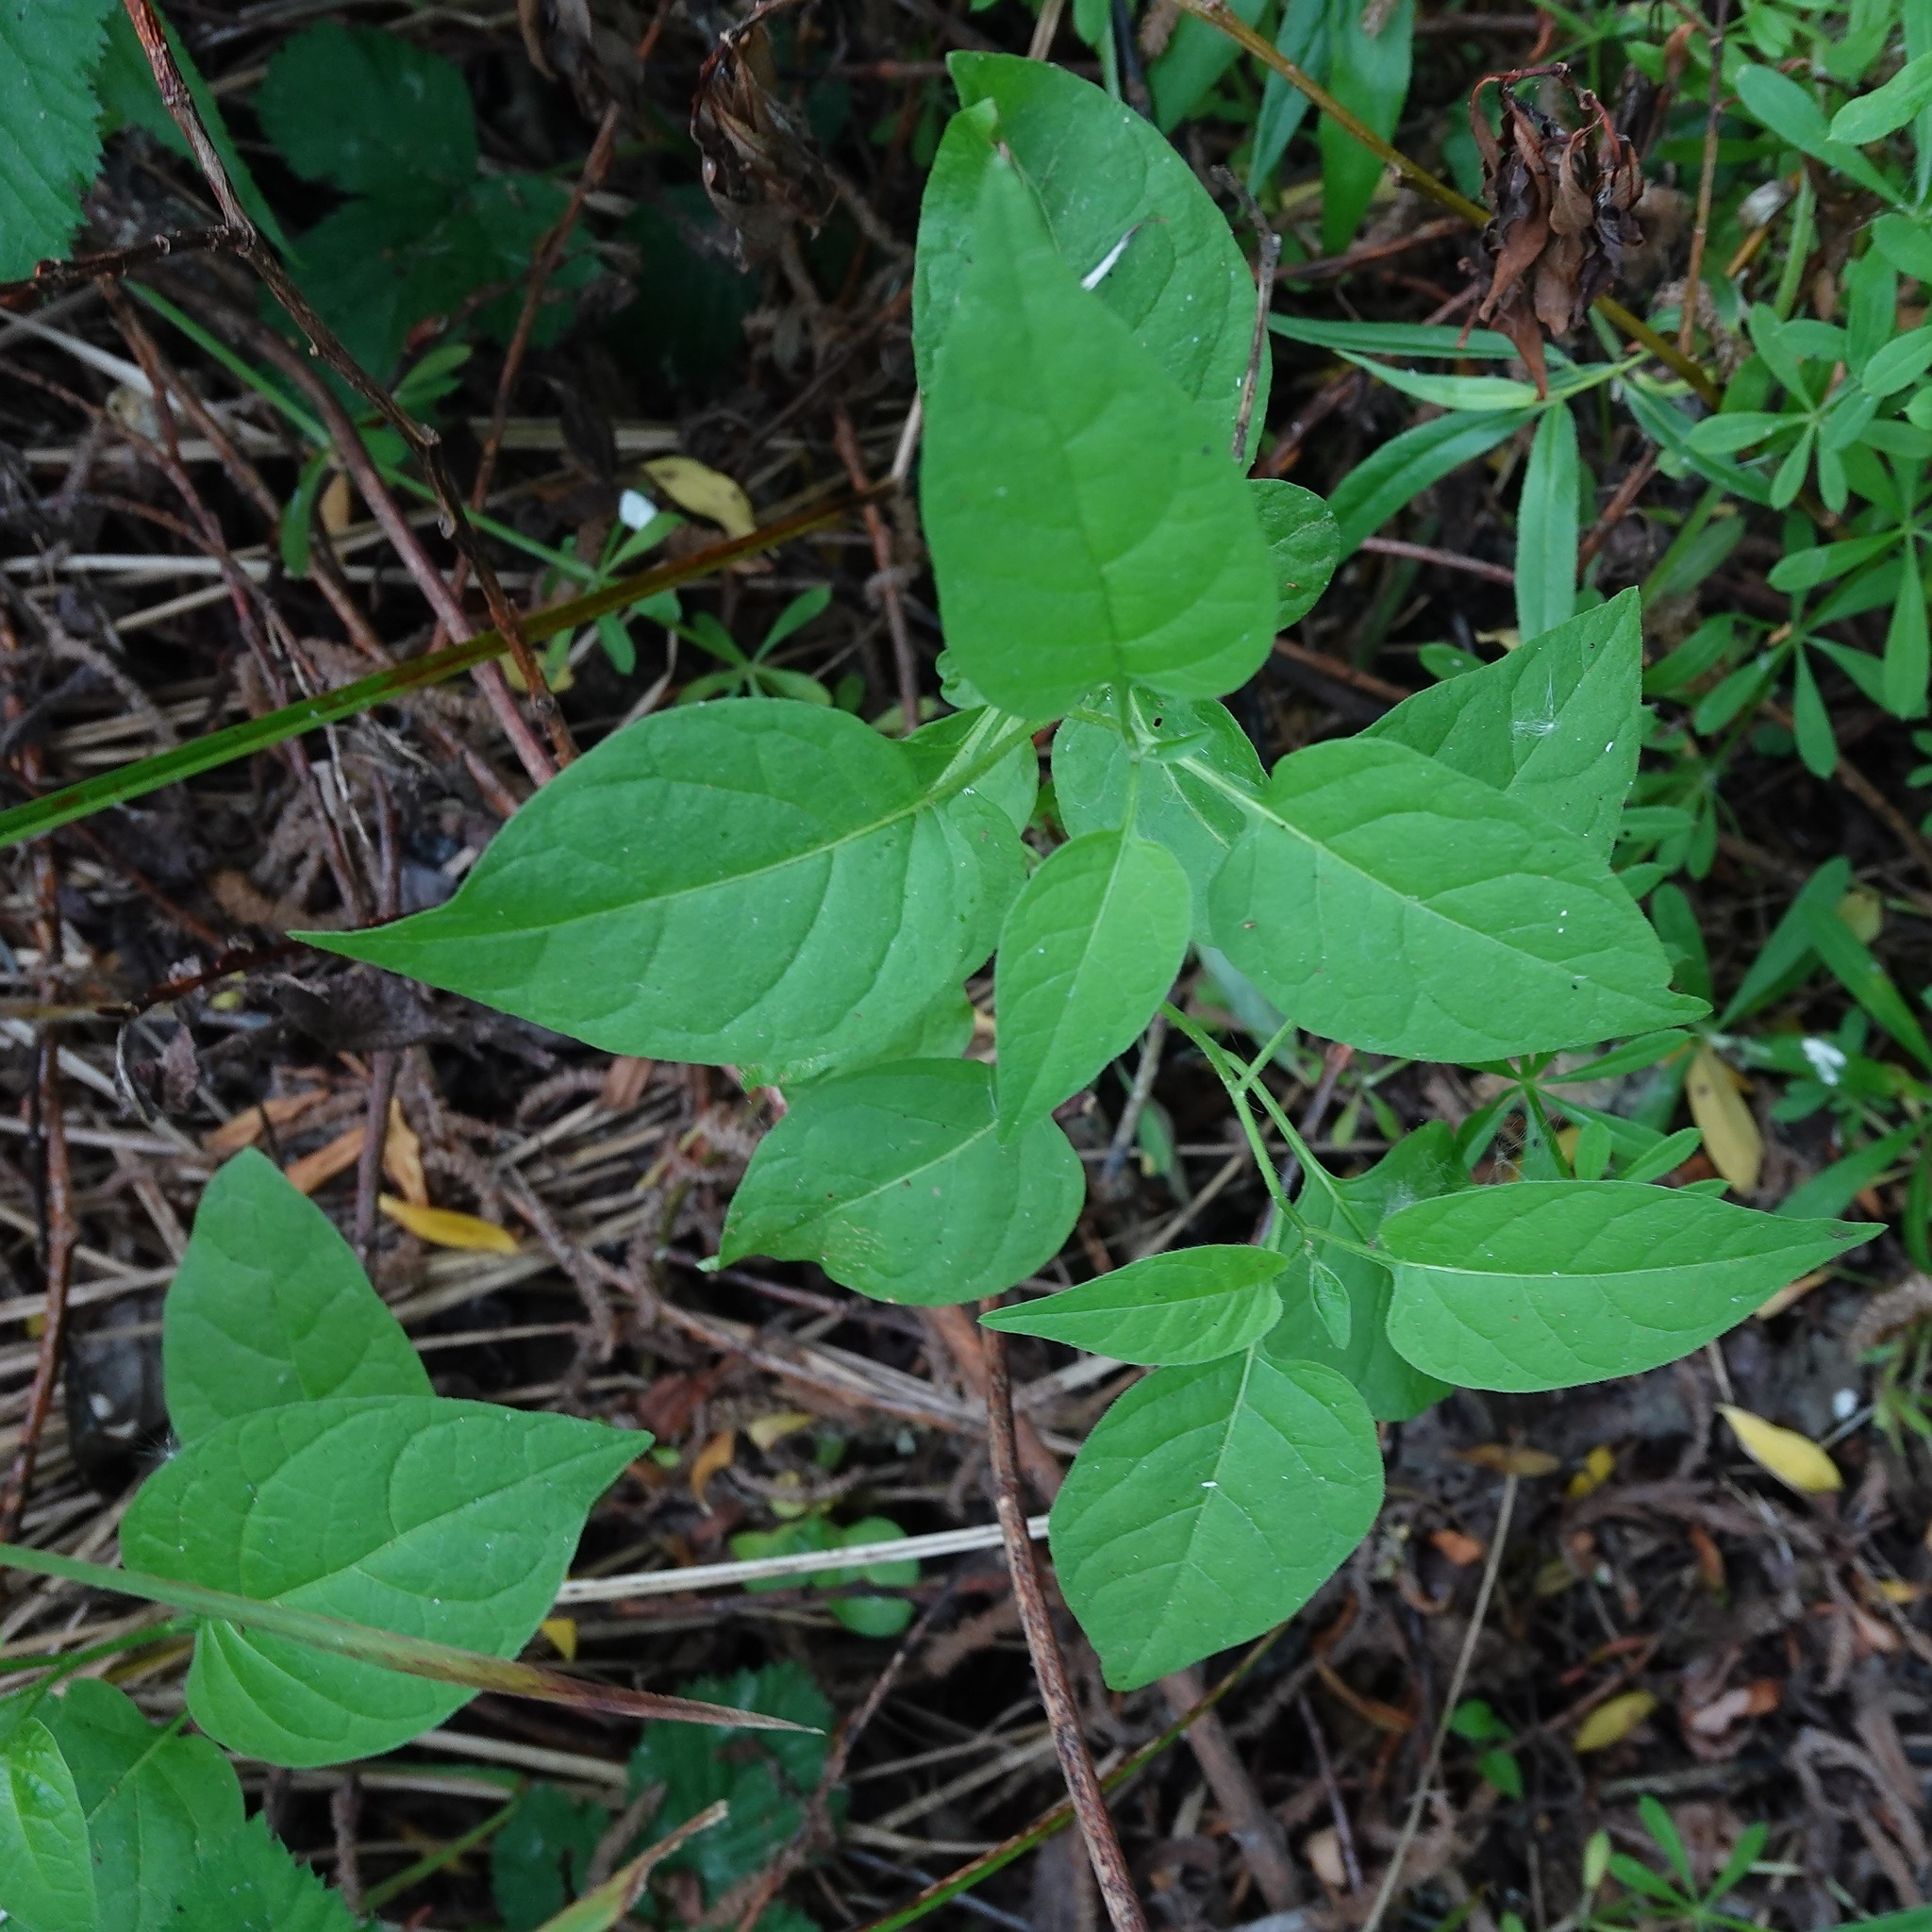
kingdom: Plantae
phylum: Tracheophyta
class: Magnoliopsida
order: Solanales
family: Solanaceae
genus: Solanum
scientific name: Solanum dulcamara
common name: Climbing nightshade
